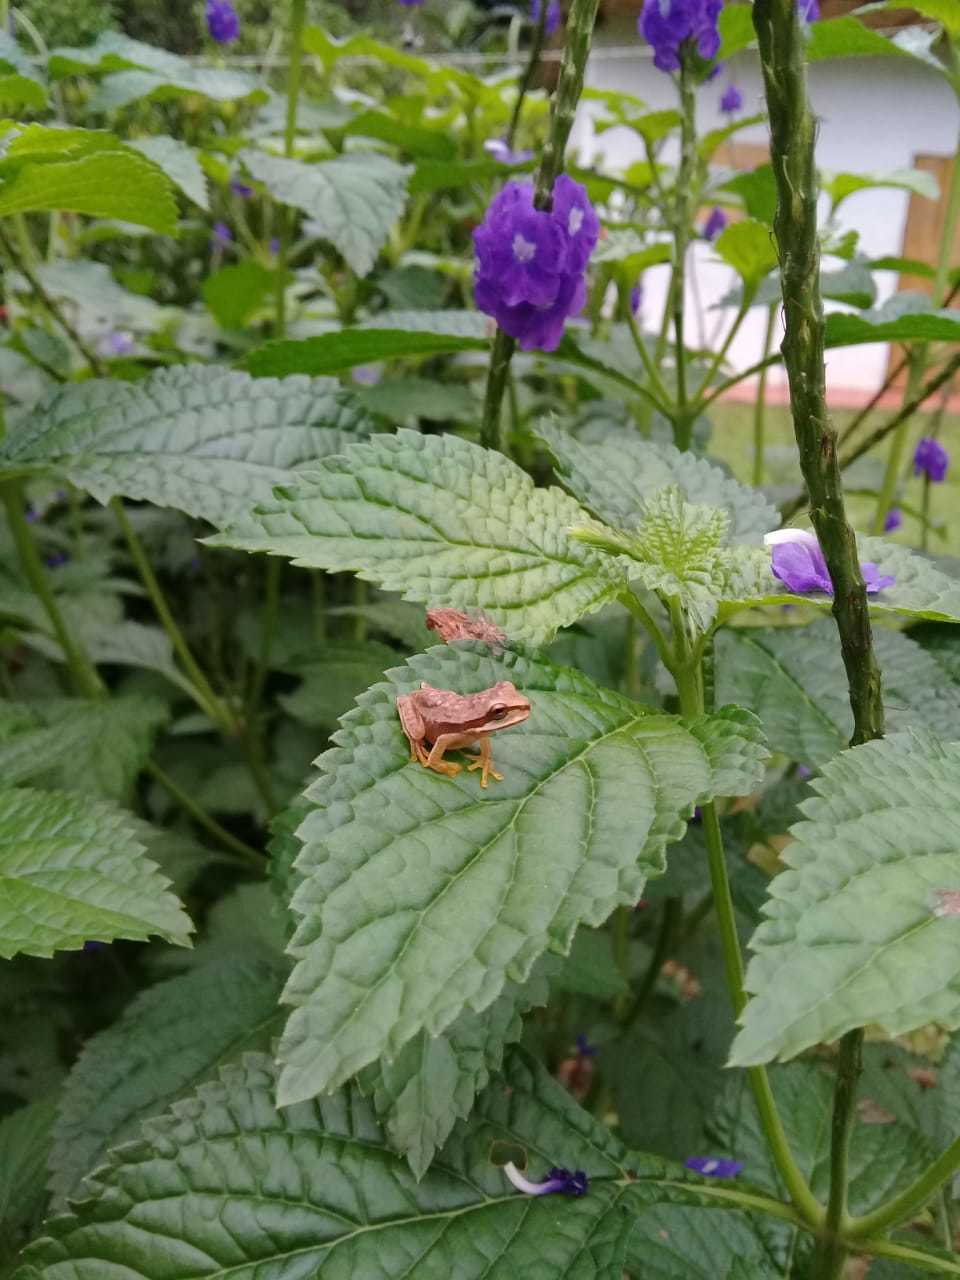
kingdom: Animalia
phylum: Chordata
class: Amphibia
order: Anura
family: Hylidae
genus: Smilisca
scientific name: Smilisca phaeota
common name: Central american smilisca
